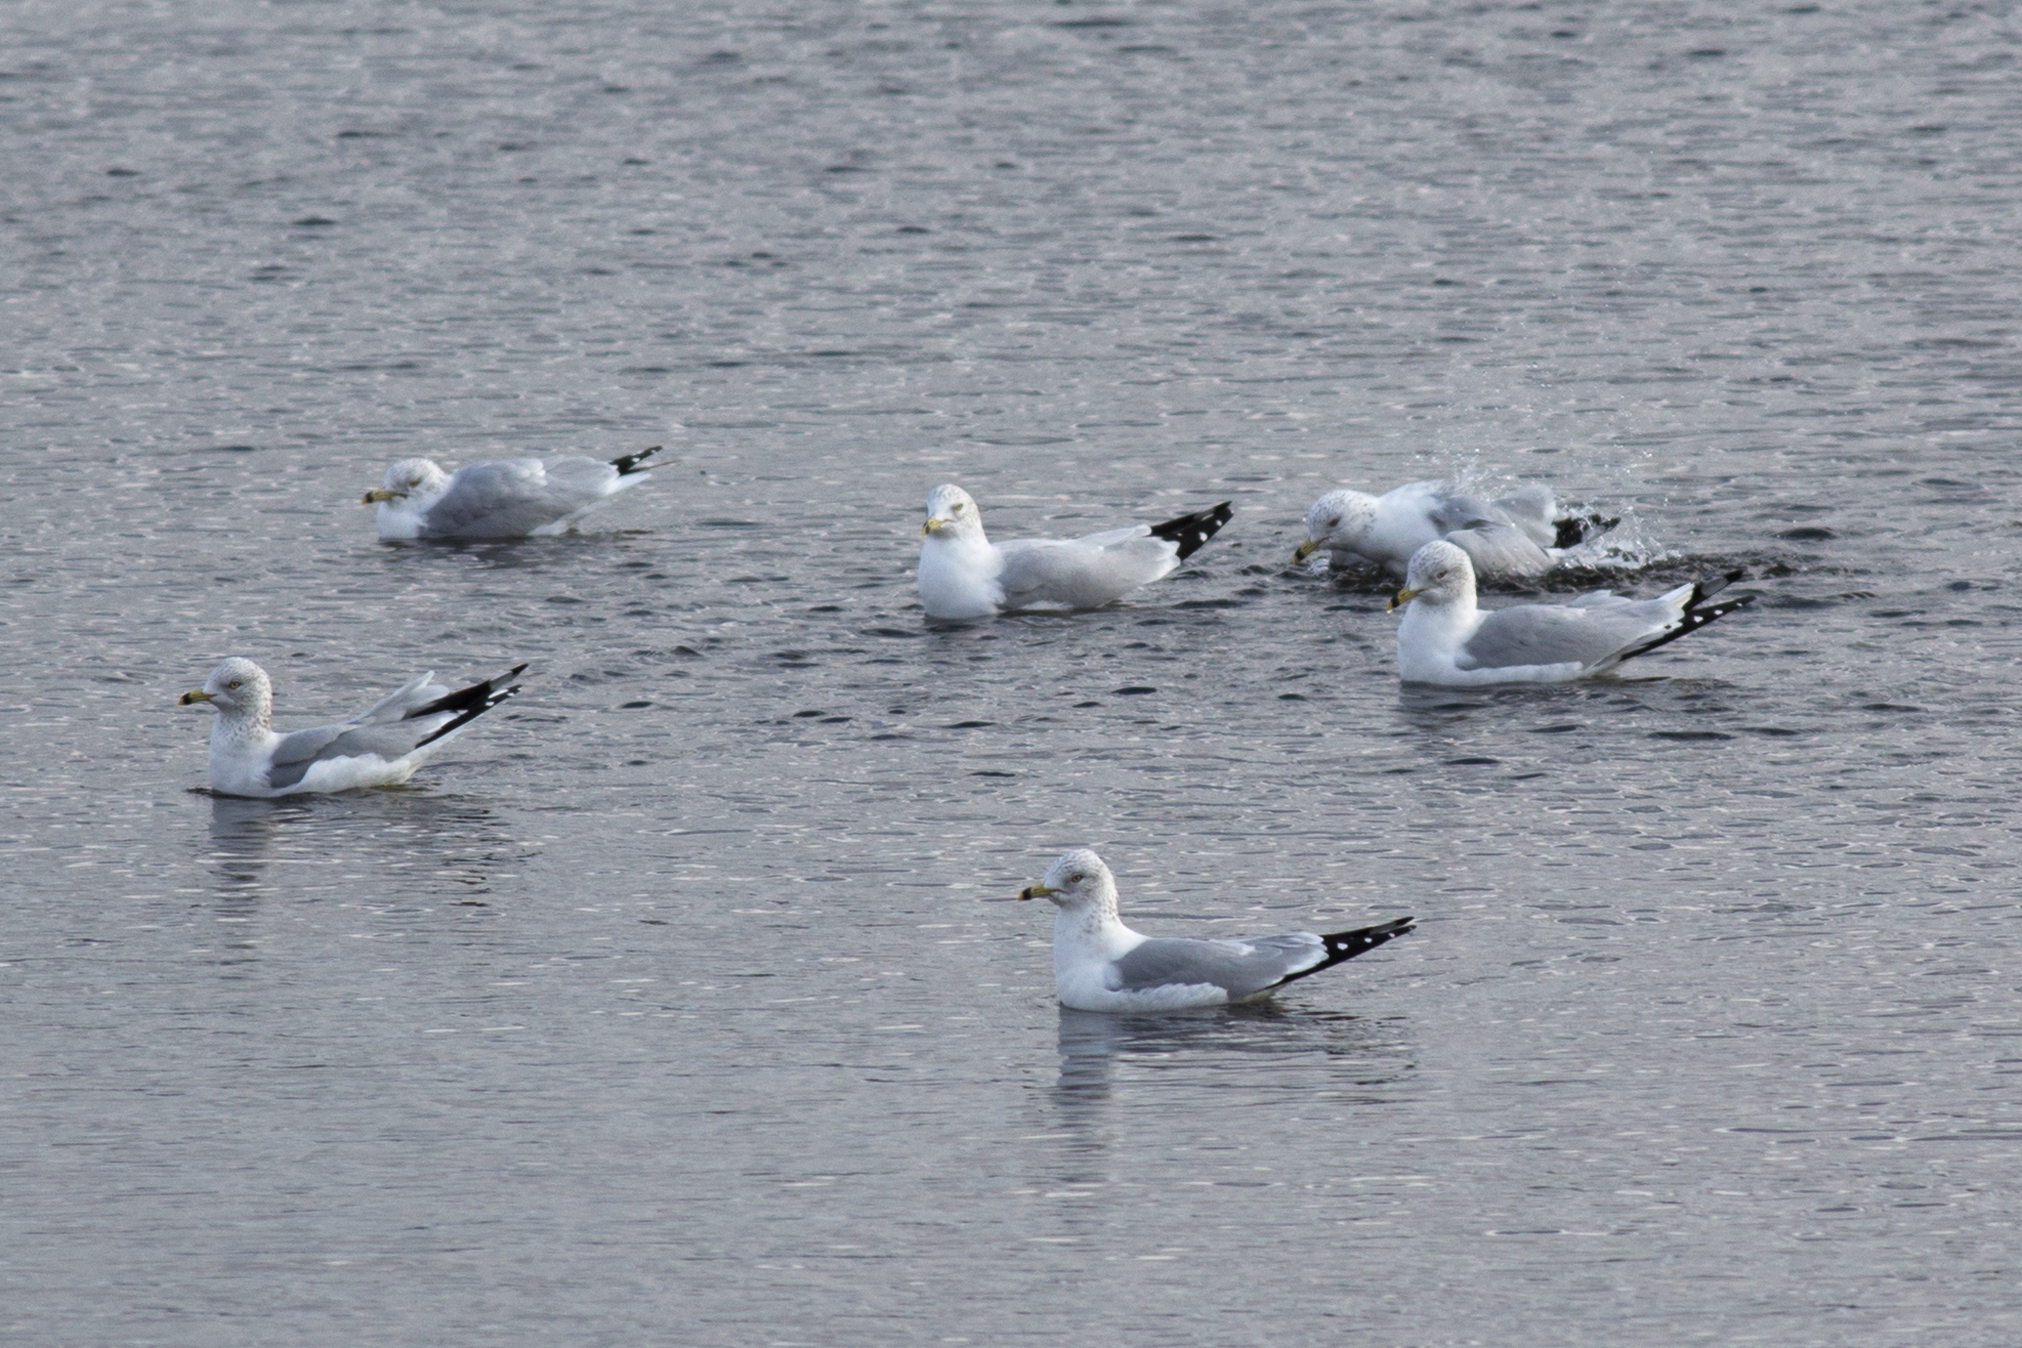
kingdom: Animalia
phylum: Chordata
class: Aves
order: Charadriiformes
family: Laridae
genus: Larus
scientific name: Larus delawarensis
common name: Ring-billed gull
